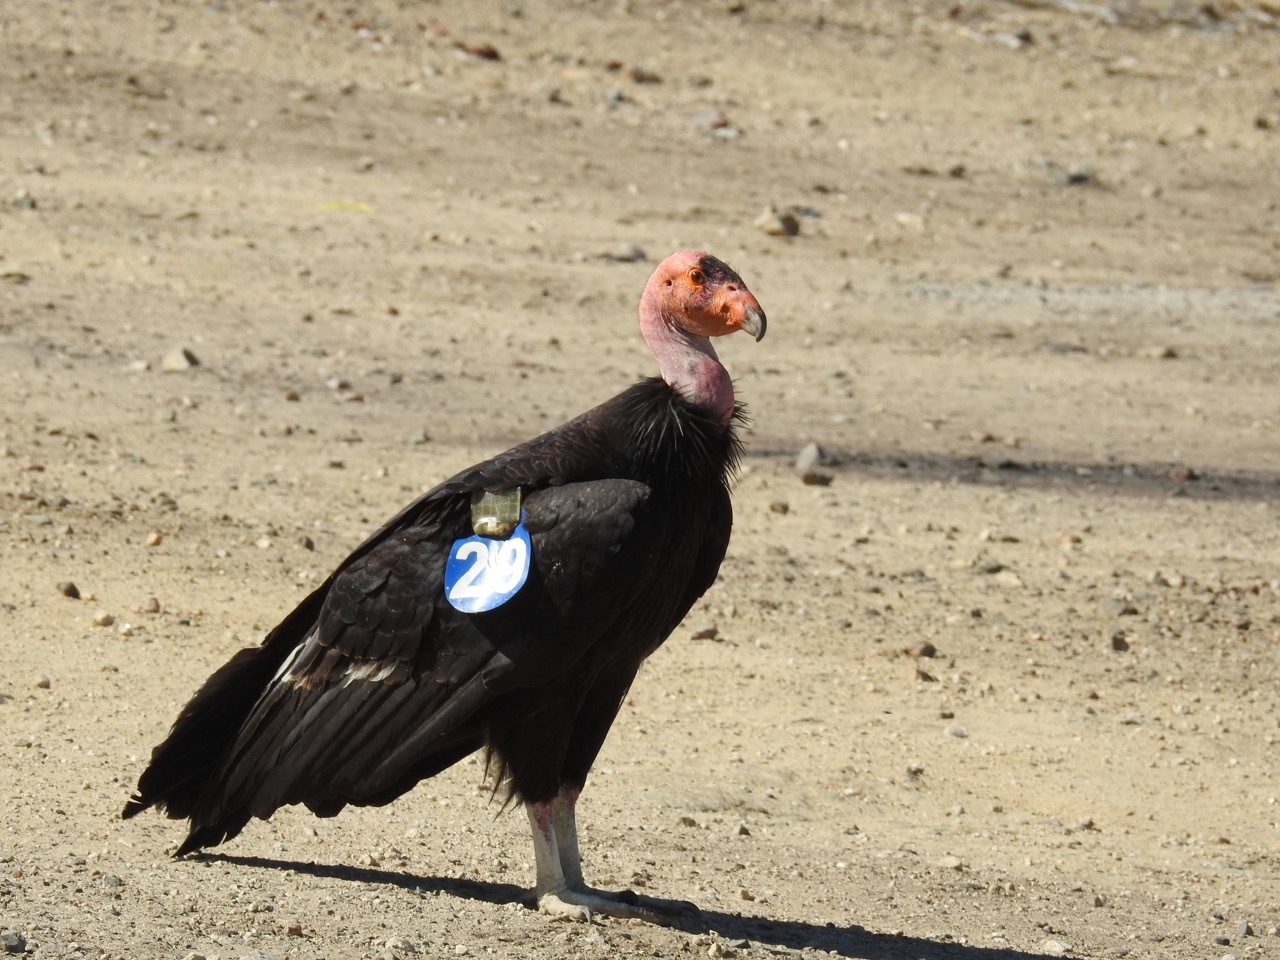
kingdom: Animalia
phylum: Chordata
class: Aves
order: Accipitriformes
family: Cathartidae
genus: Gymnogyps
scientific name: Gymnogyps californianus
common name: California condor
